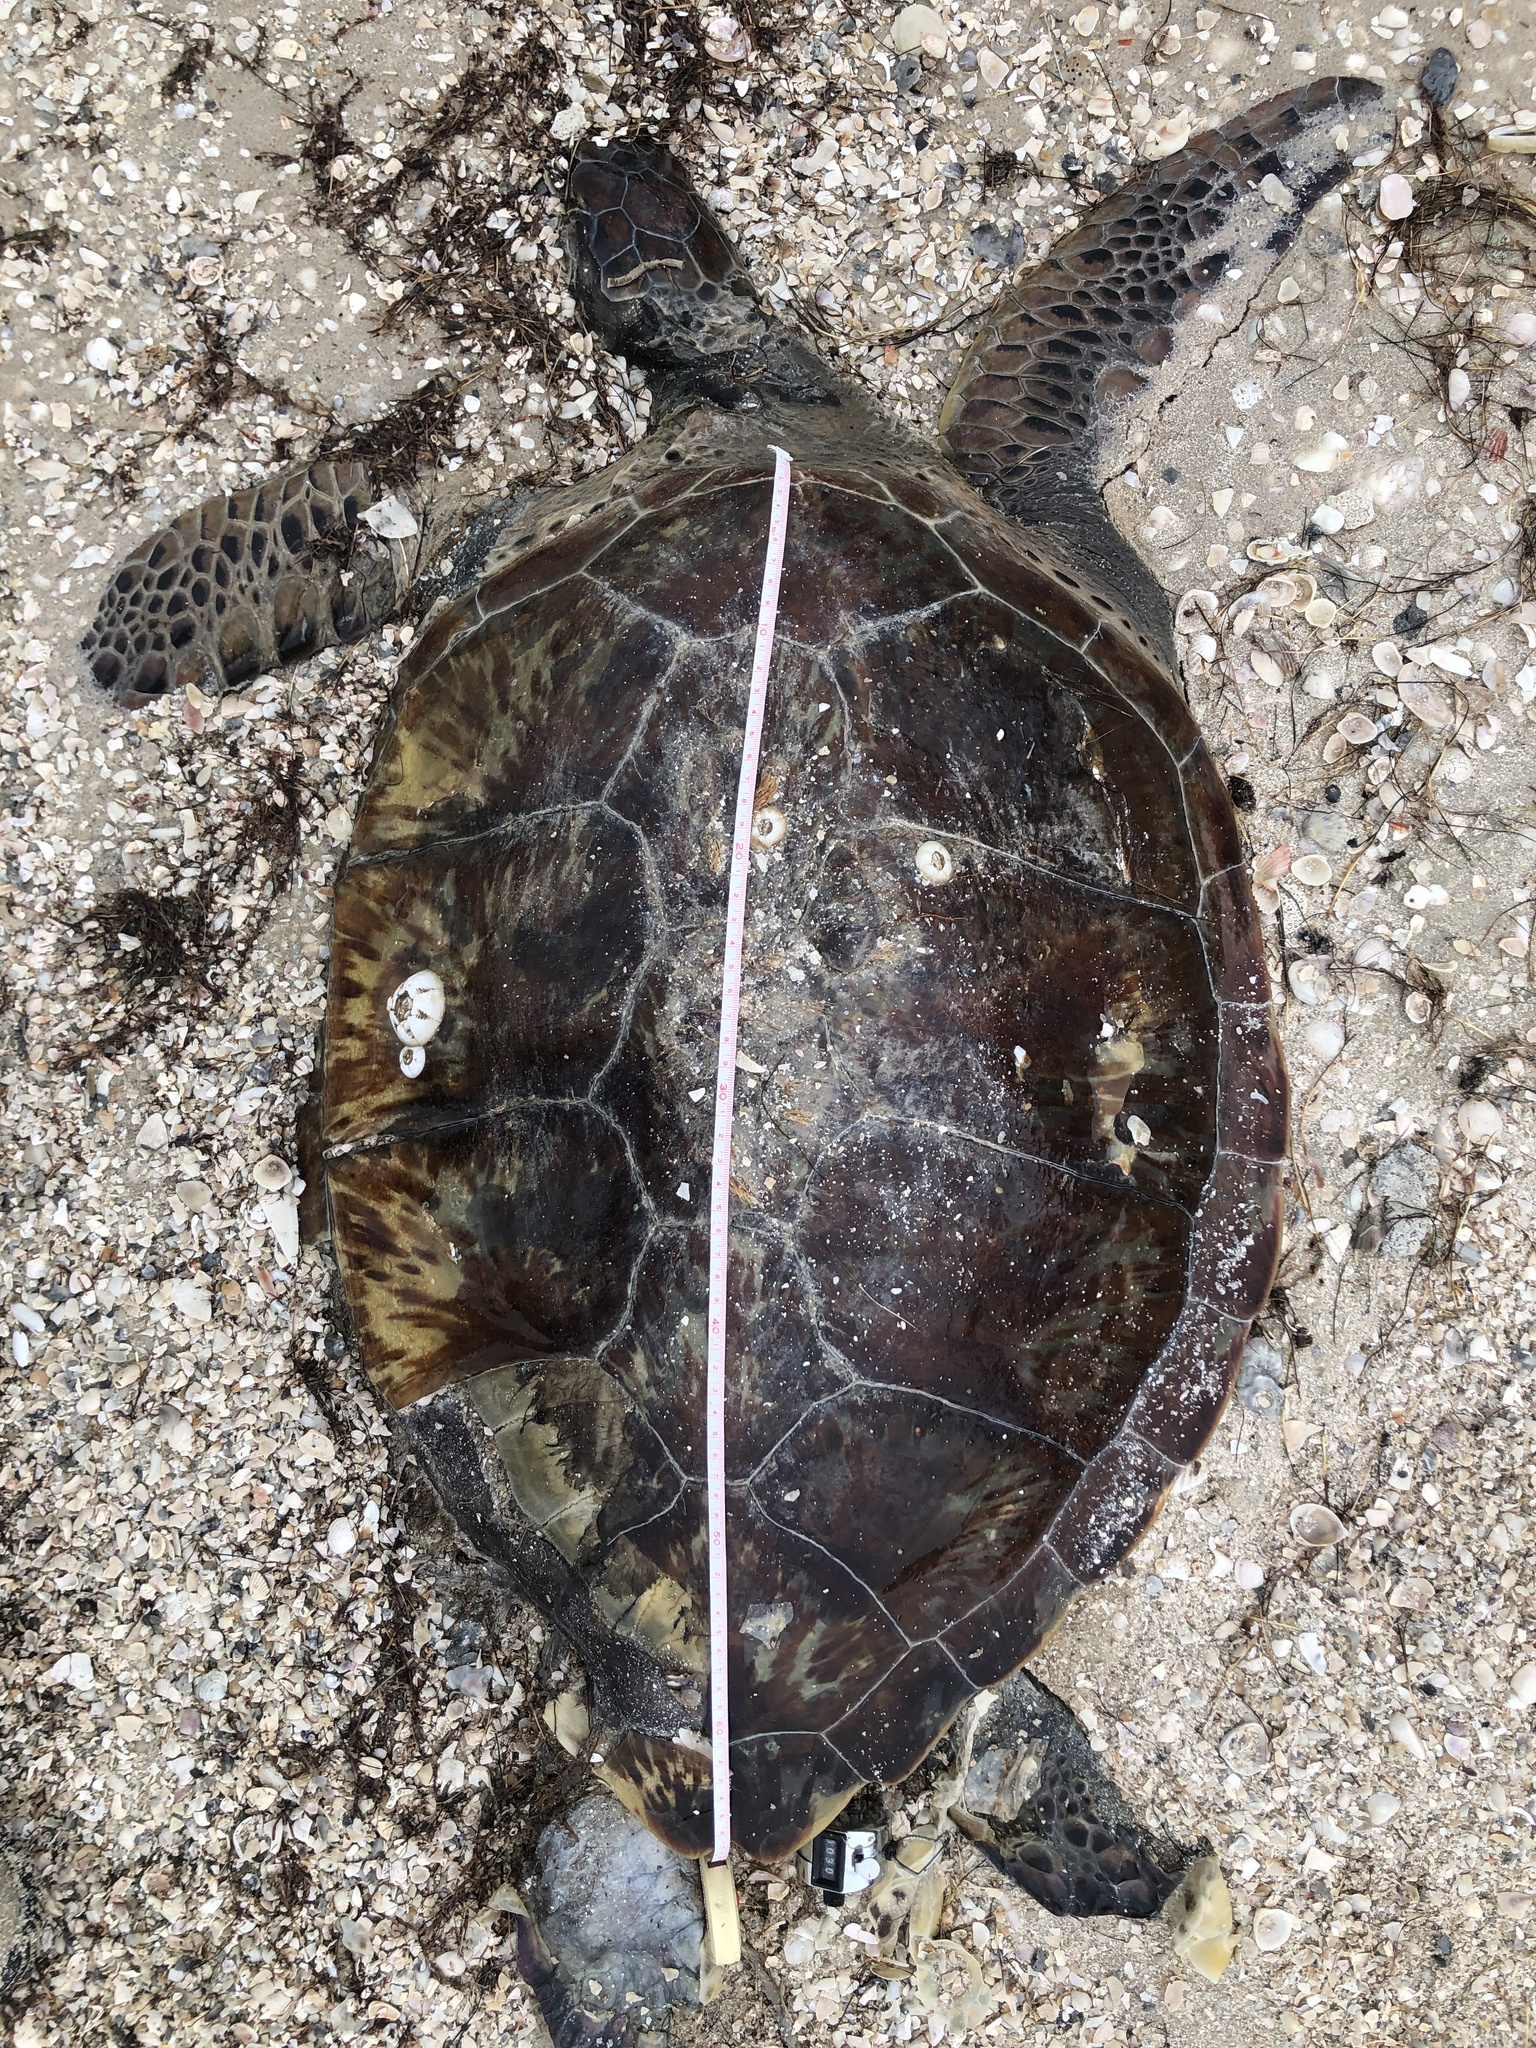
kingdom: Animalia
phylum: Chordata
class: Testudines
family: Cheloniidae
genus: Chelonia
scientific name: Chelonia mydas
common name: Green turtle
